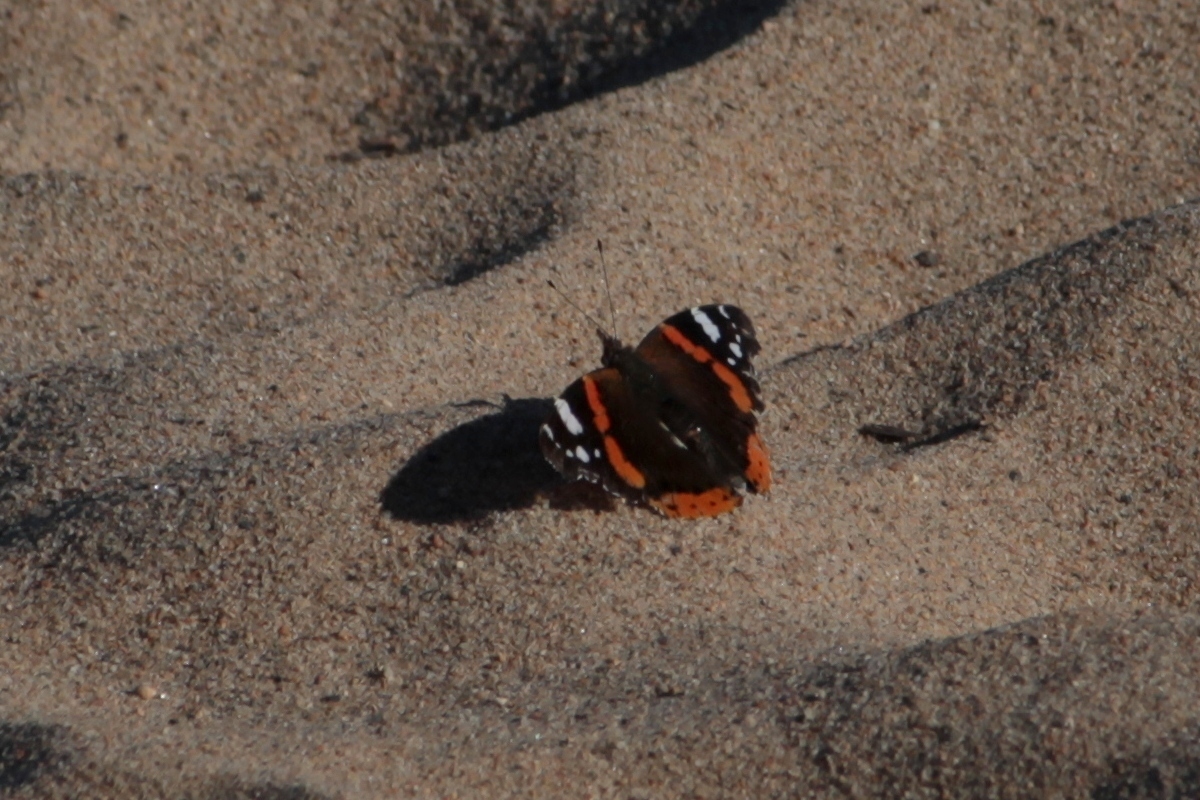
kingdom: Animalia
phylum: Arthropoda
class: Insecta
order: Lepidoptera
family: Nymphalidae
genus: Vanessa
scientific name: Vanessa atalanta
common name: Red admiral
